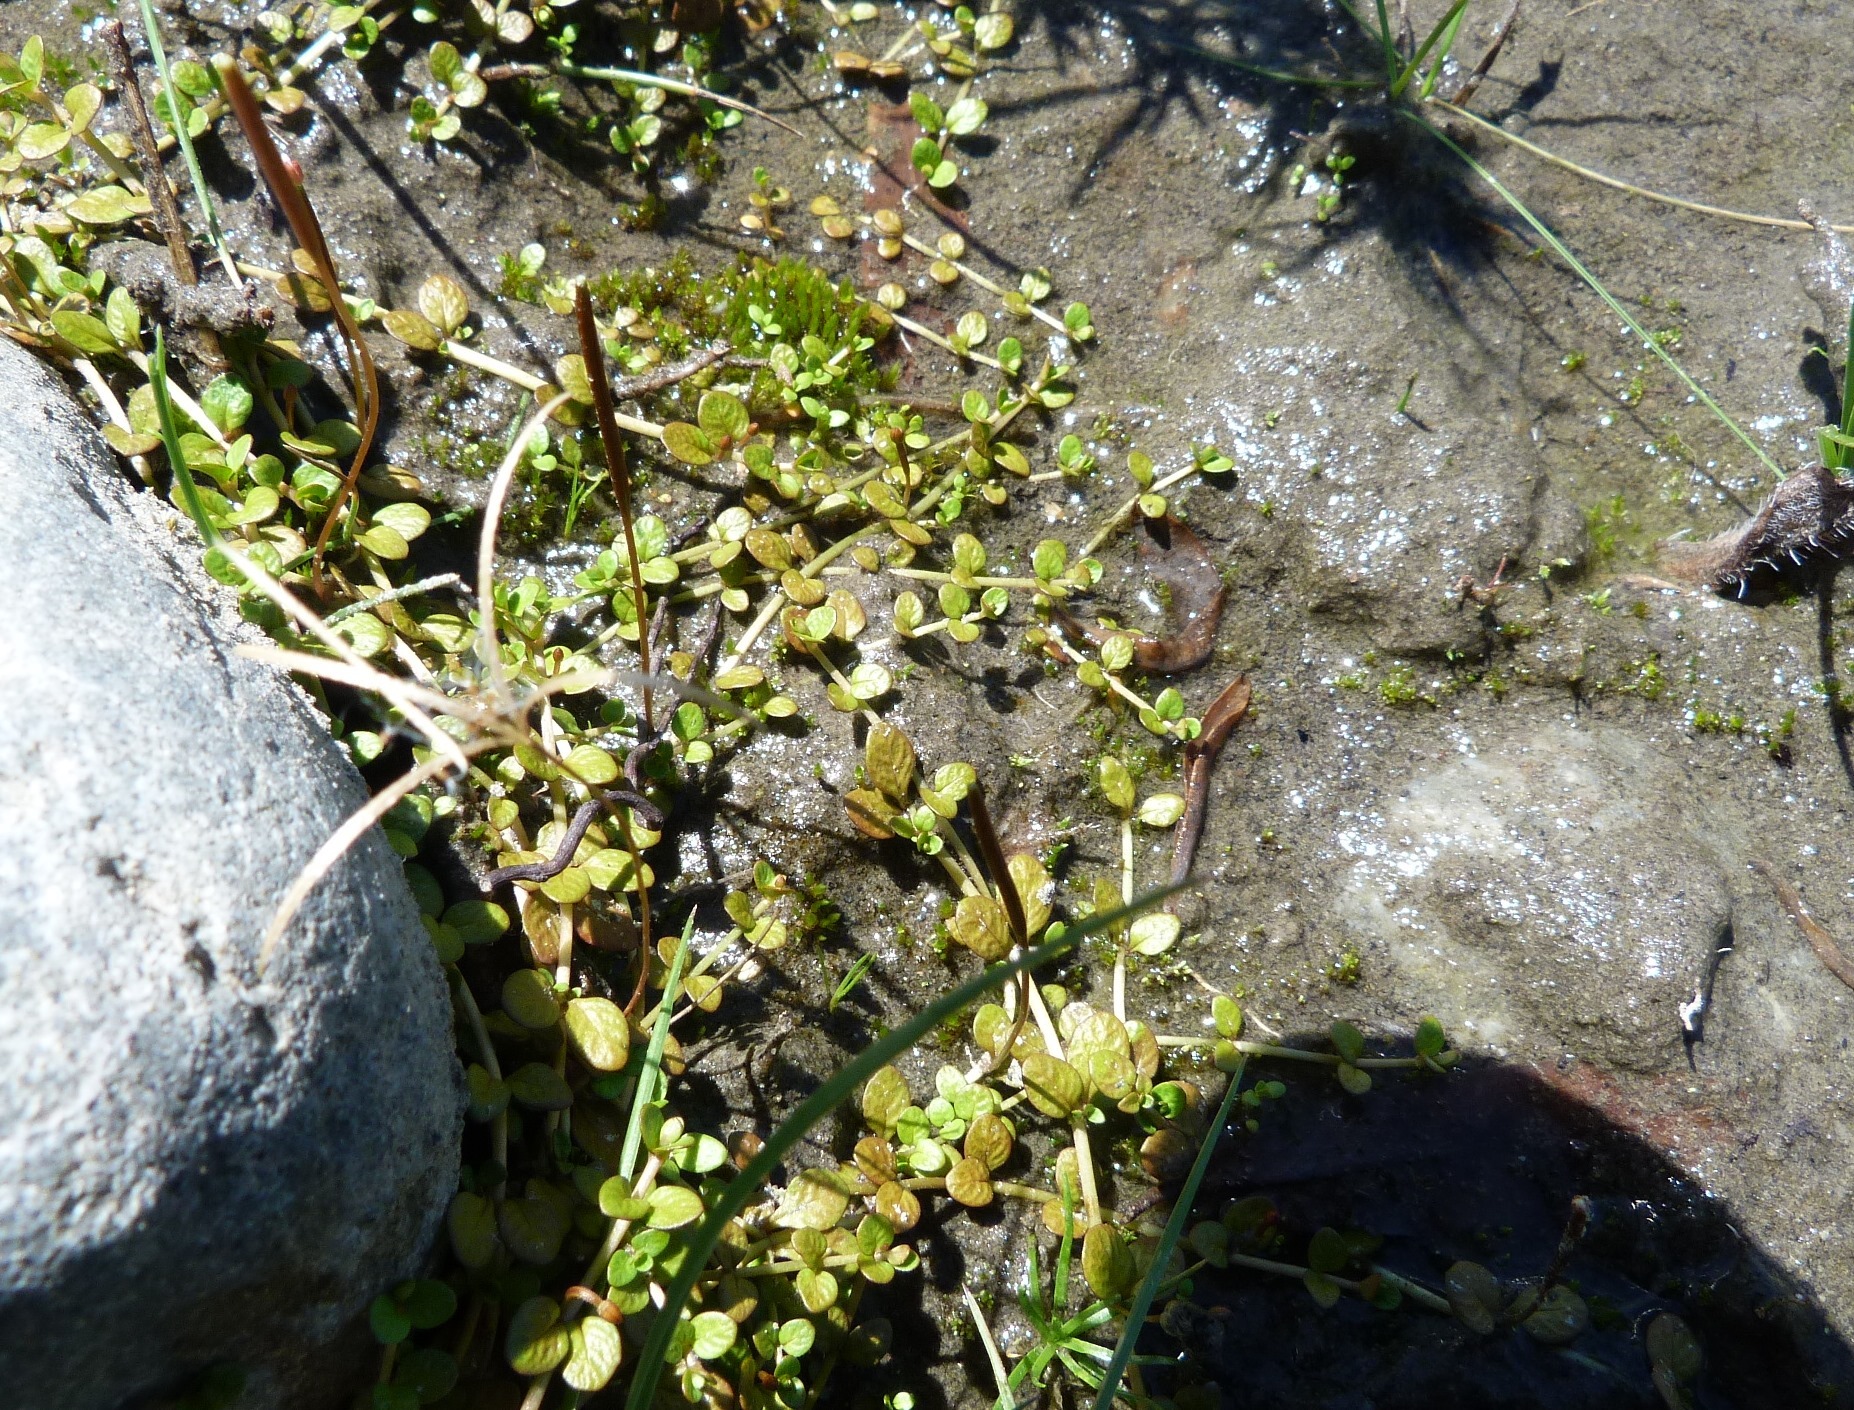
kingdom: Plantae
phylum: Tracheophyta
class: Magnoliopsida
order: Myrtales
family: Onagraceae
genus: Epilobium
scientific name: Epilobium komarovianum
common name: Bronzy willowherb
